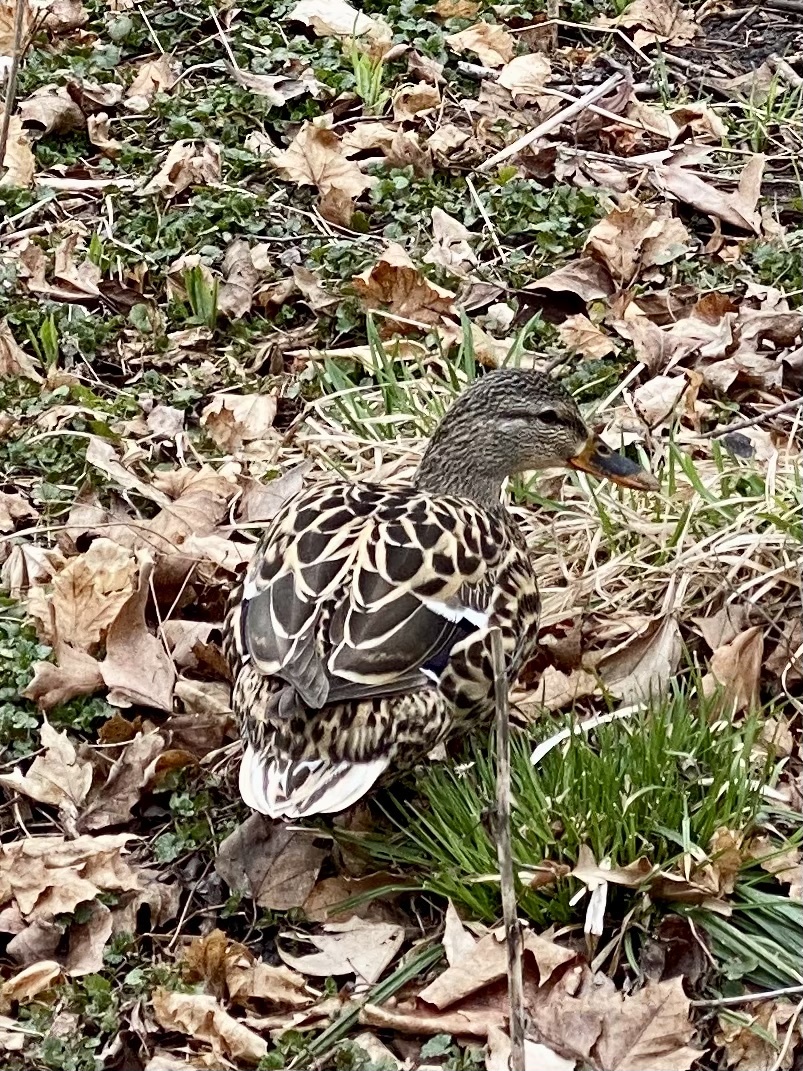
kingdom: Animalia
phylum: Chordata
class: Aves
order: Anseriformes
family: Anatidae
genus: Anas
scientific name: Anas platyrhynchos
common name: Mallard
